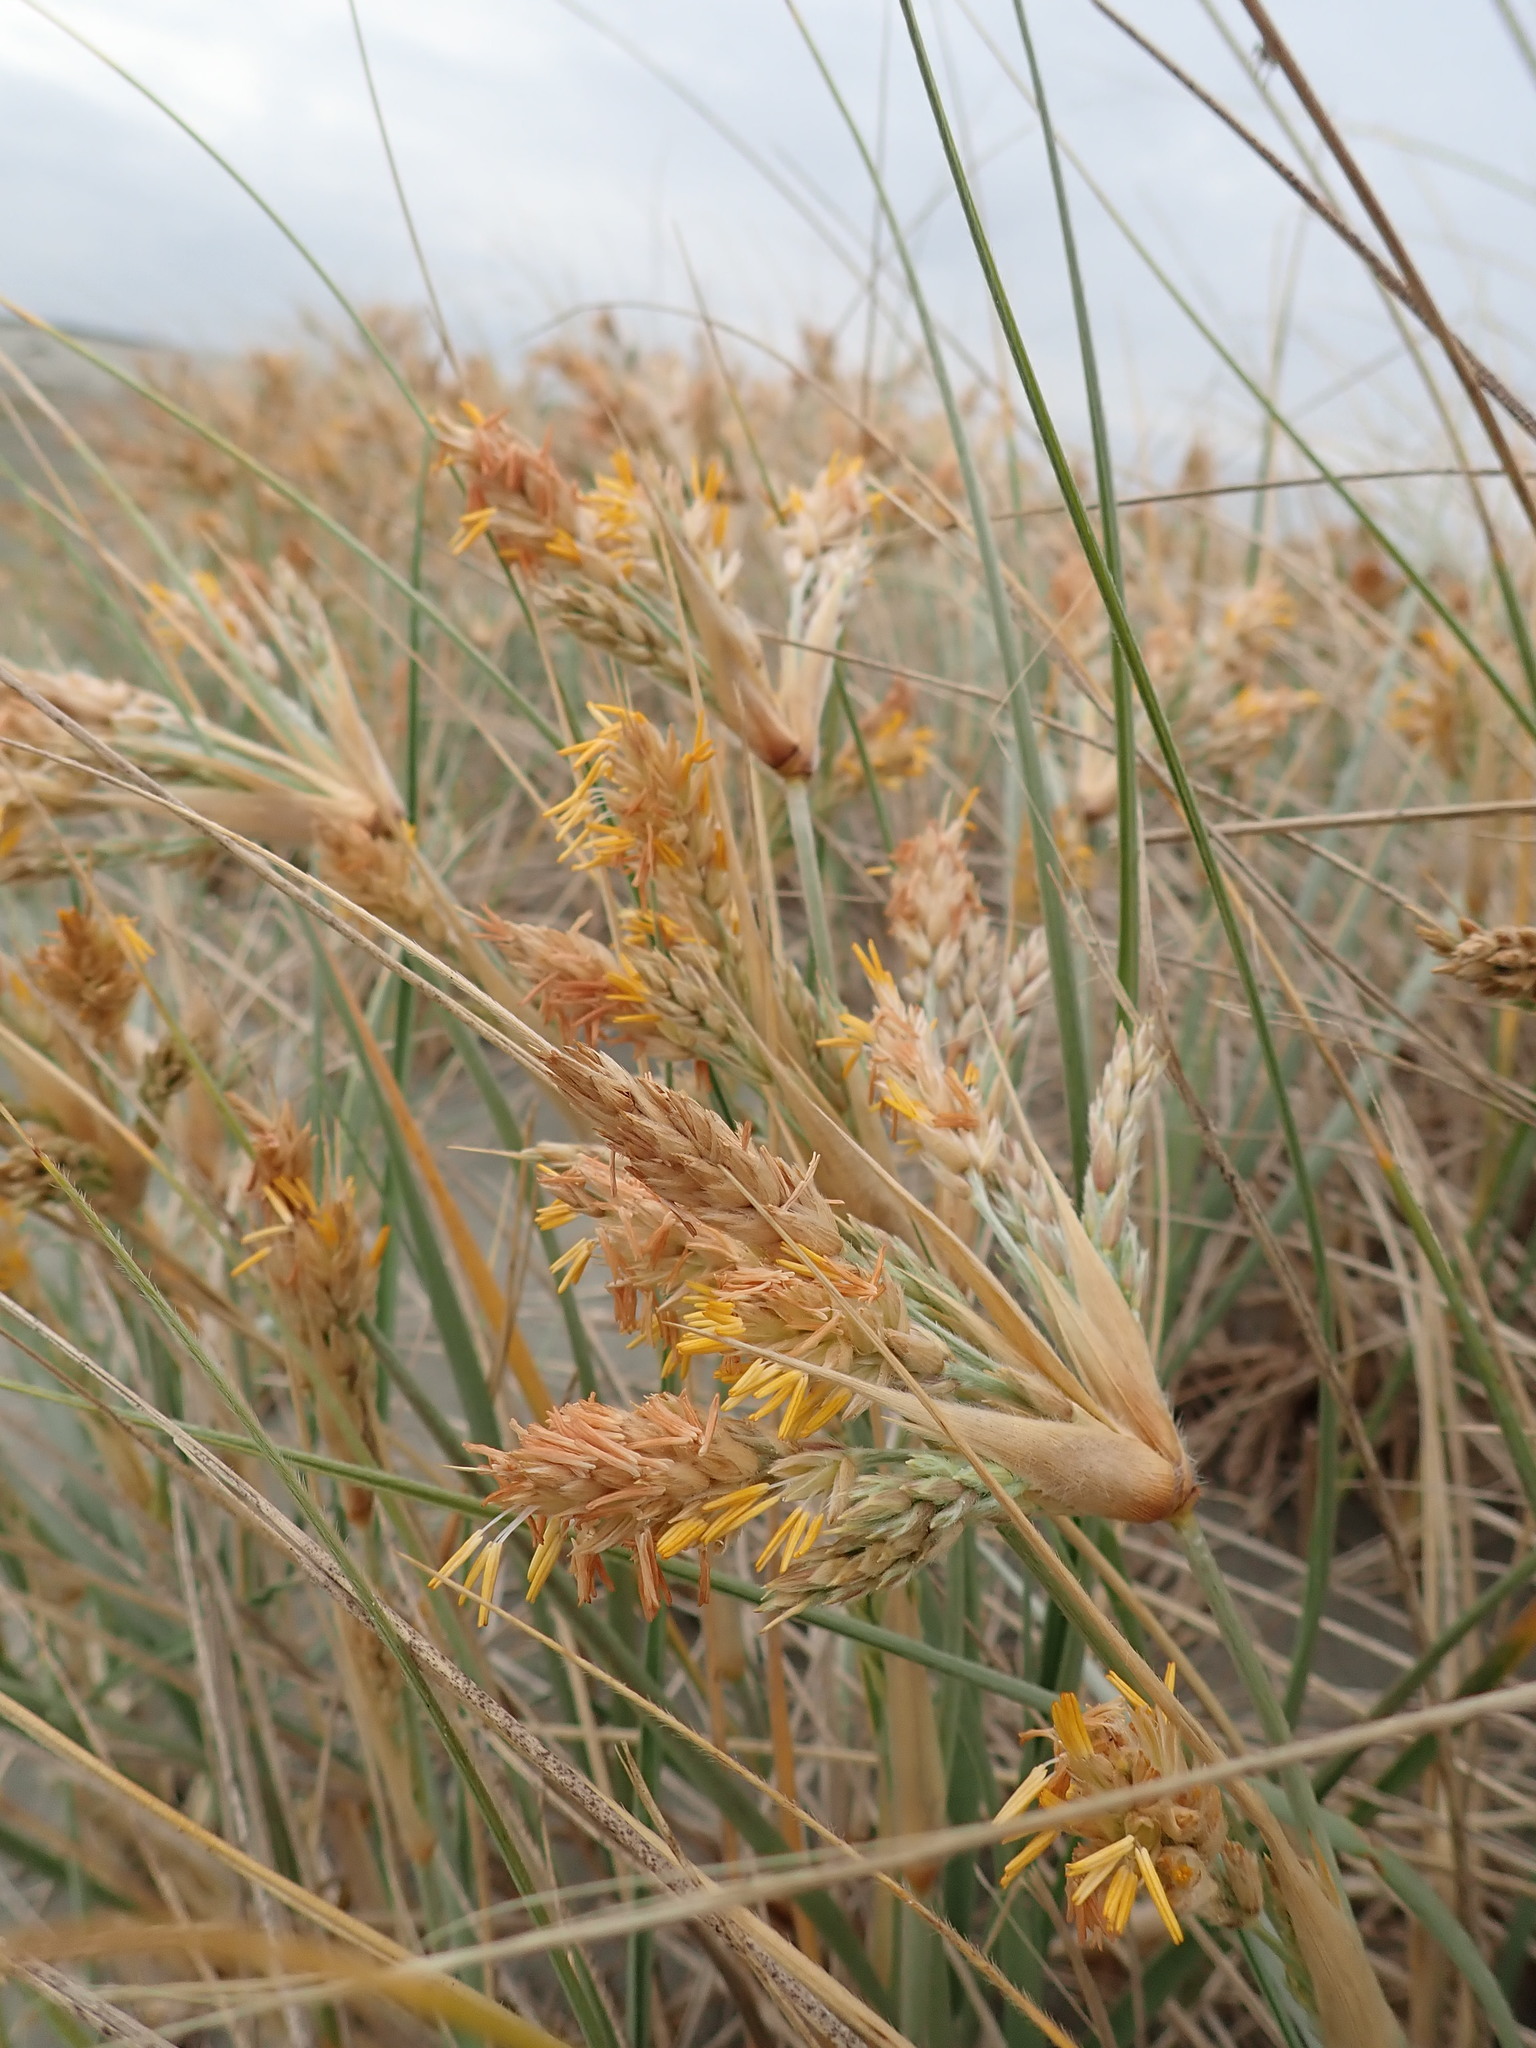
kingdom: Plantae
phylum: Tracheophyta
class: Liliopsida
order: Poales
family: Poaceae
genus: Spinifex
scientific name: Spinifex sericeus
